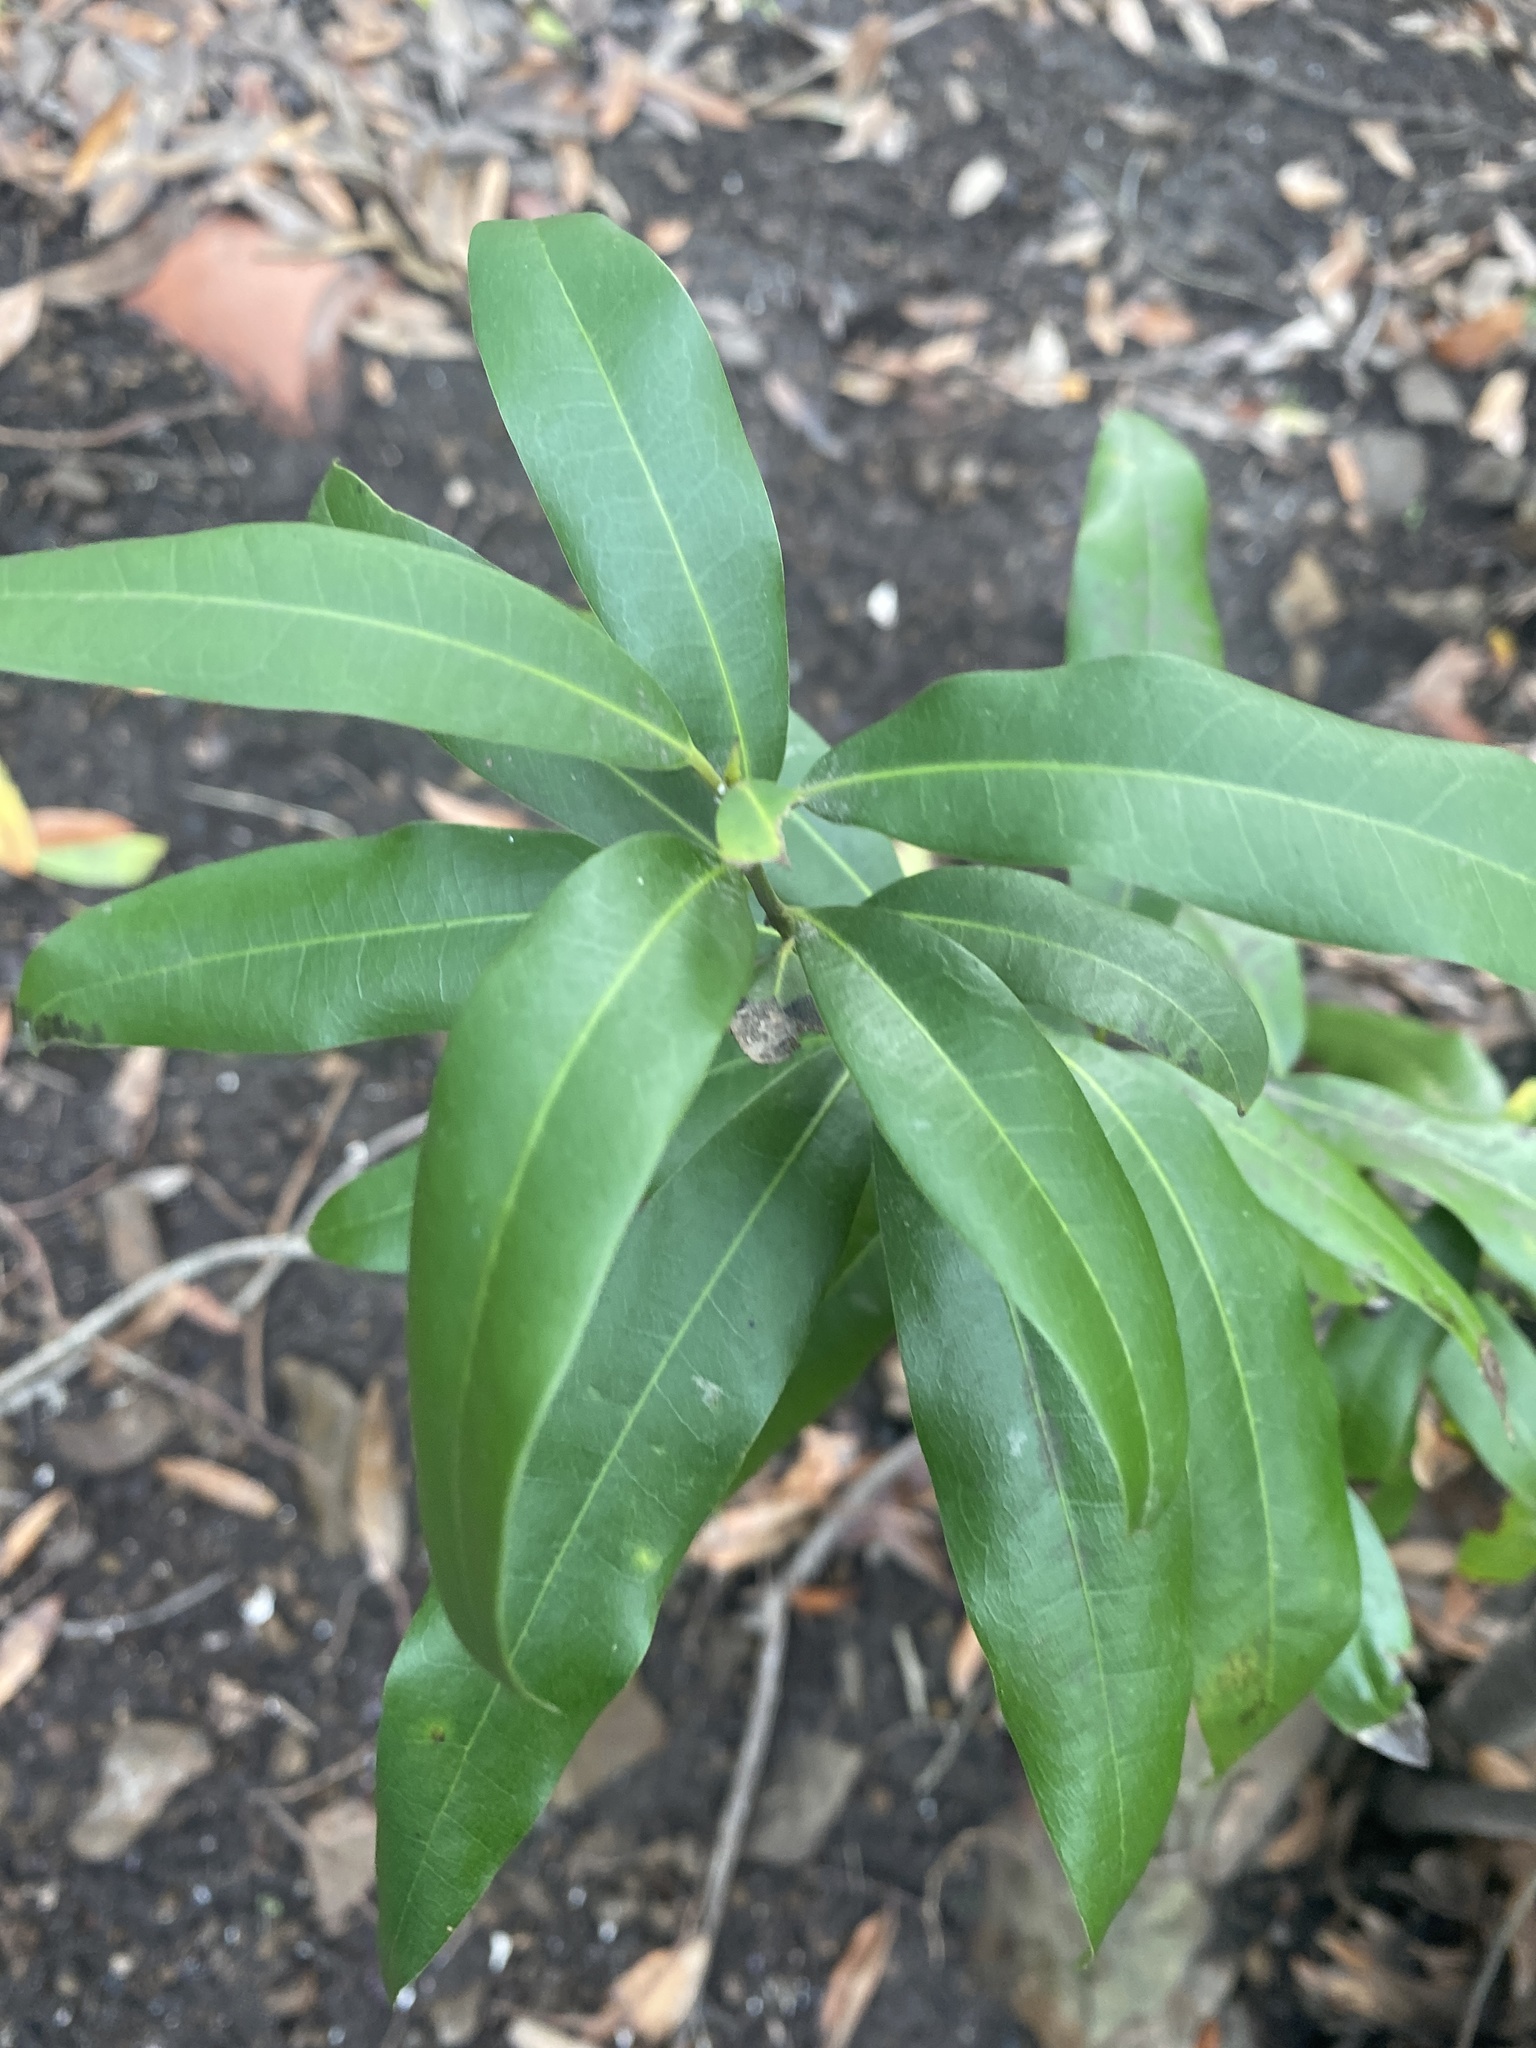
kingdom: Plantae
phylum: Tracheophyta
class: Magnoliopsida
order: Laurales
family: Lauraceae
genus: Umbellularia
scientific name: Umbellularia californica
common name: California bay
